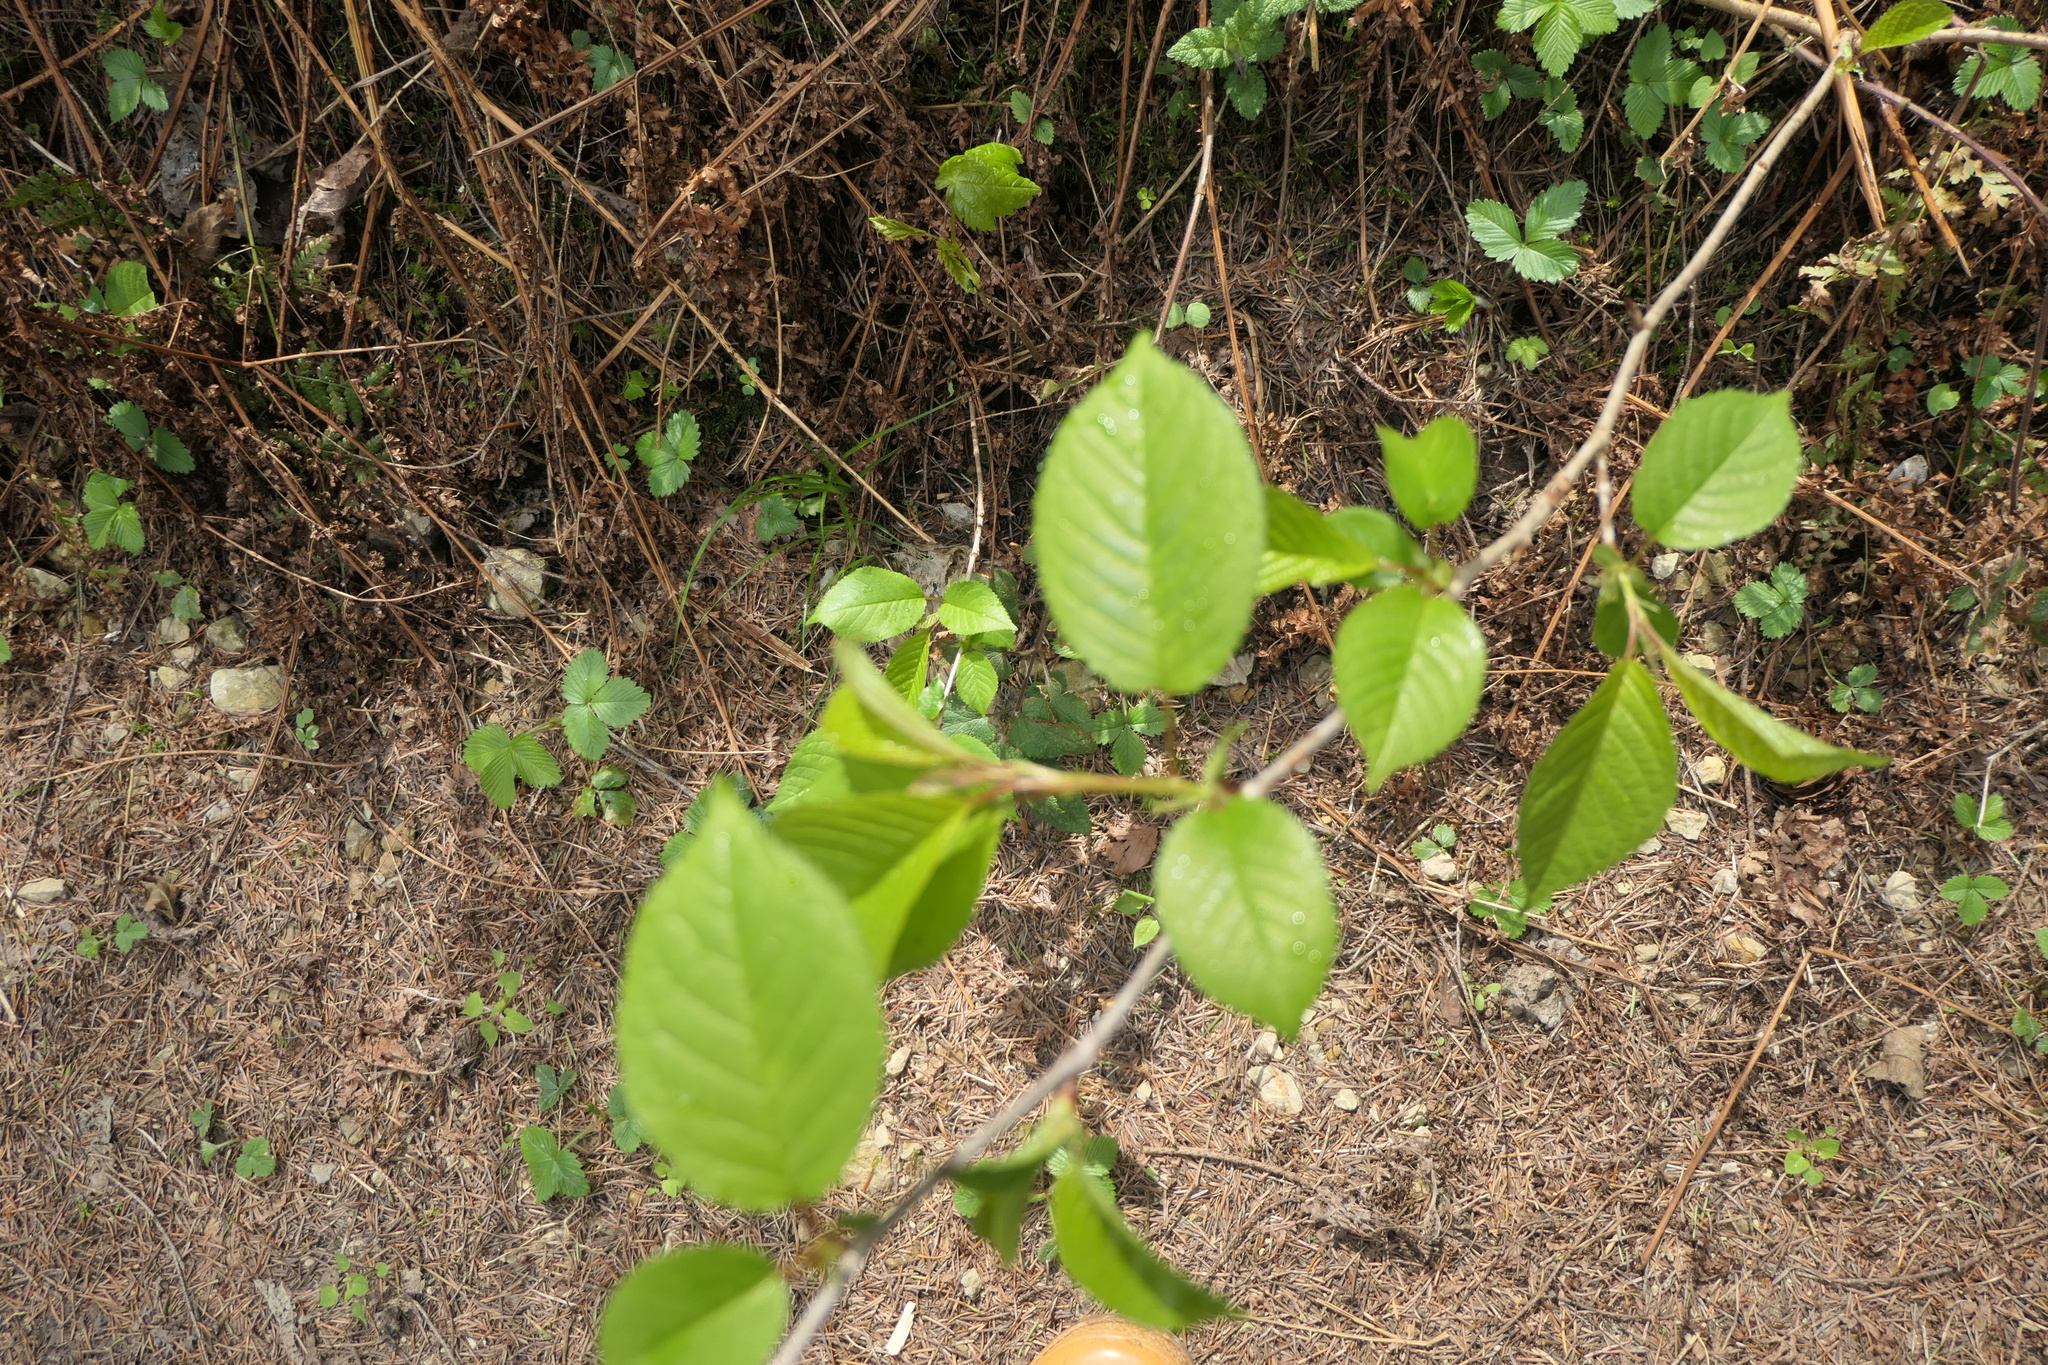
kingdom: Plantae
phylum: Tracheophyta
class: Magnoliopsida
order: Rosales
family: Rosaceae
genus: Prunus
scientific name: Prunus avium
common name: Sweet cherry
